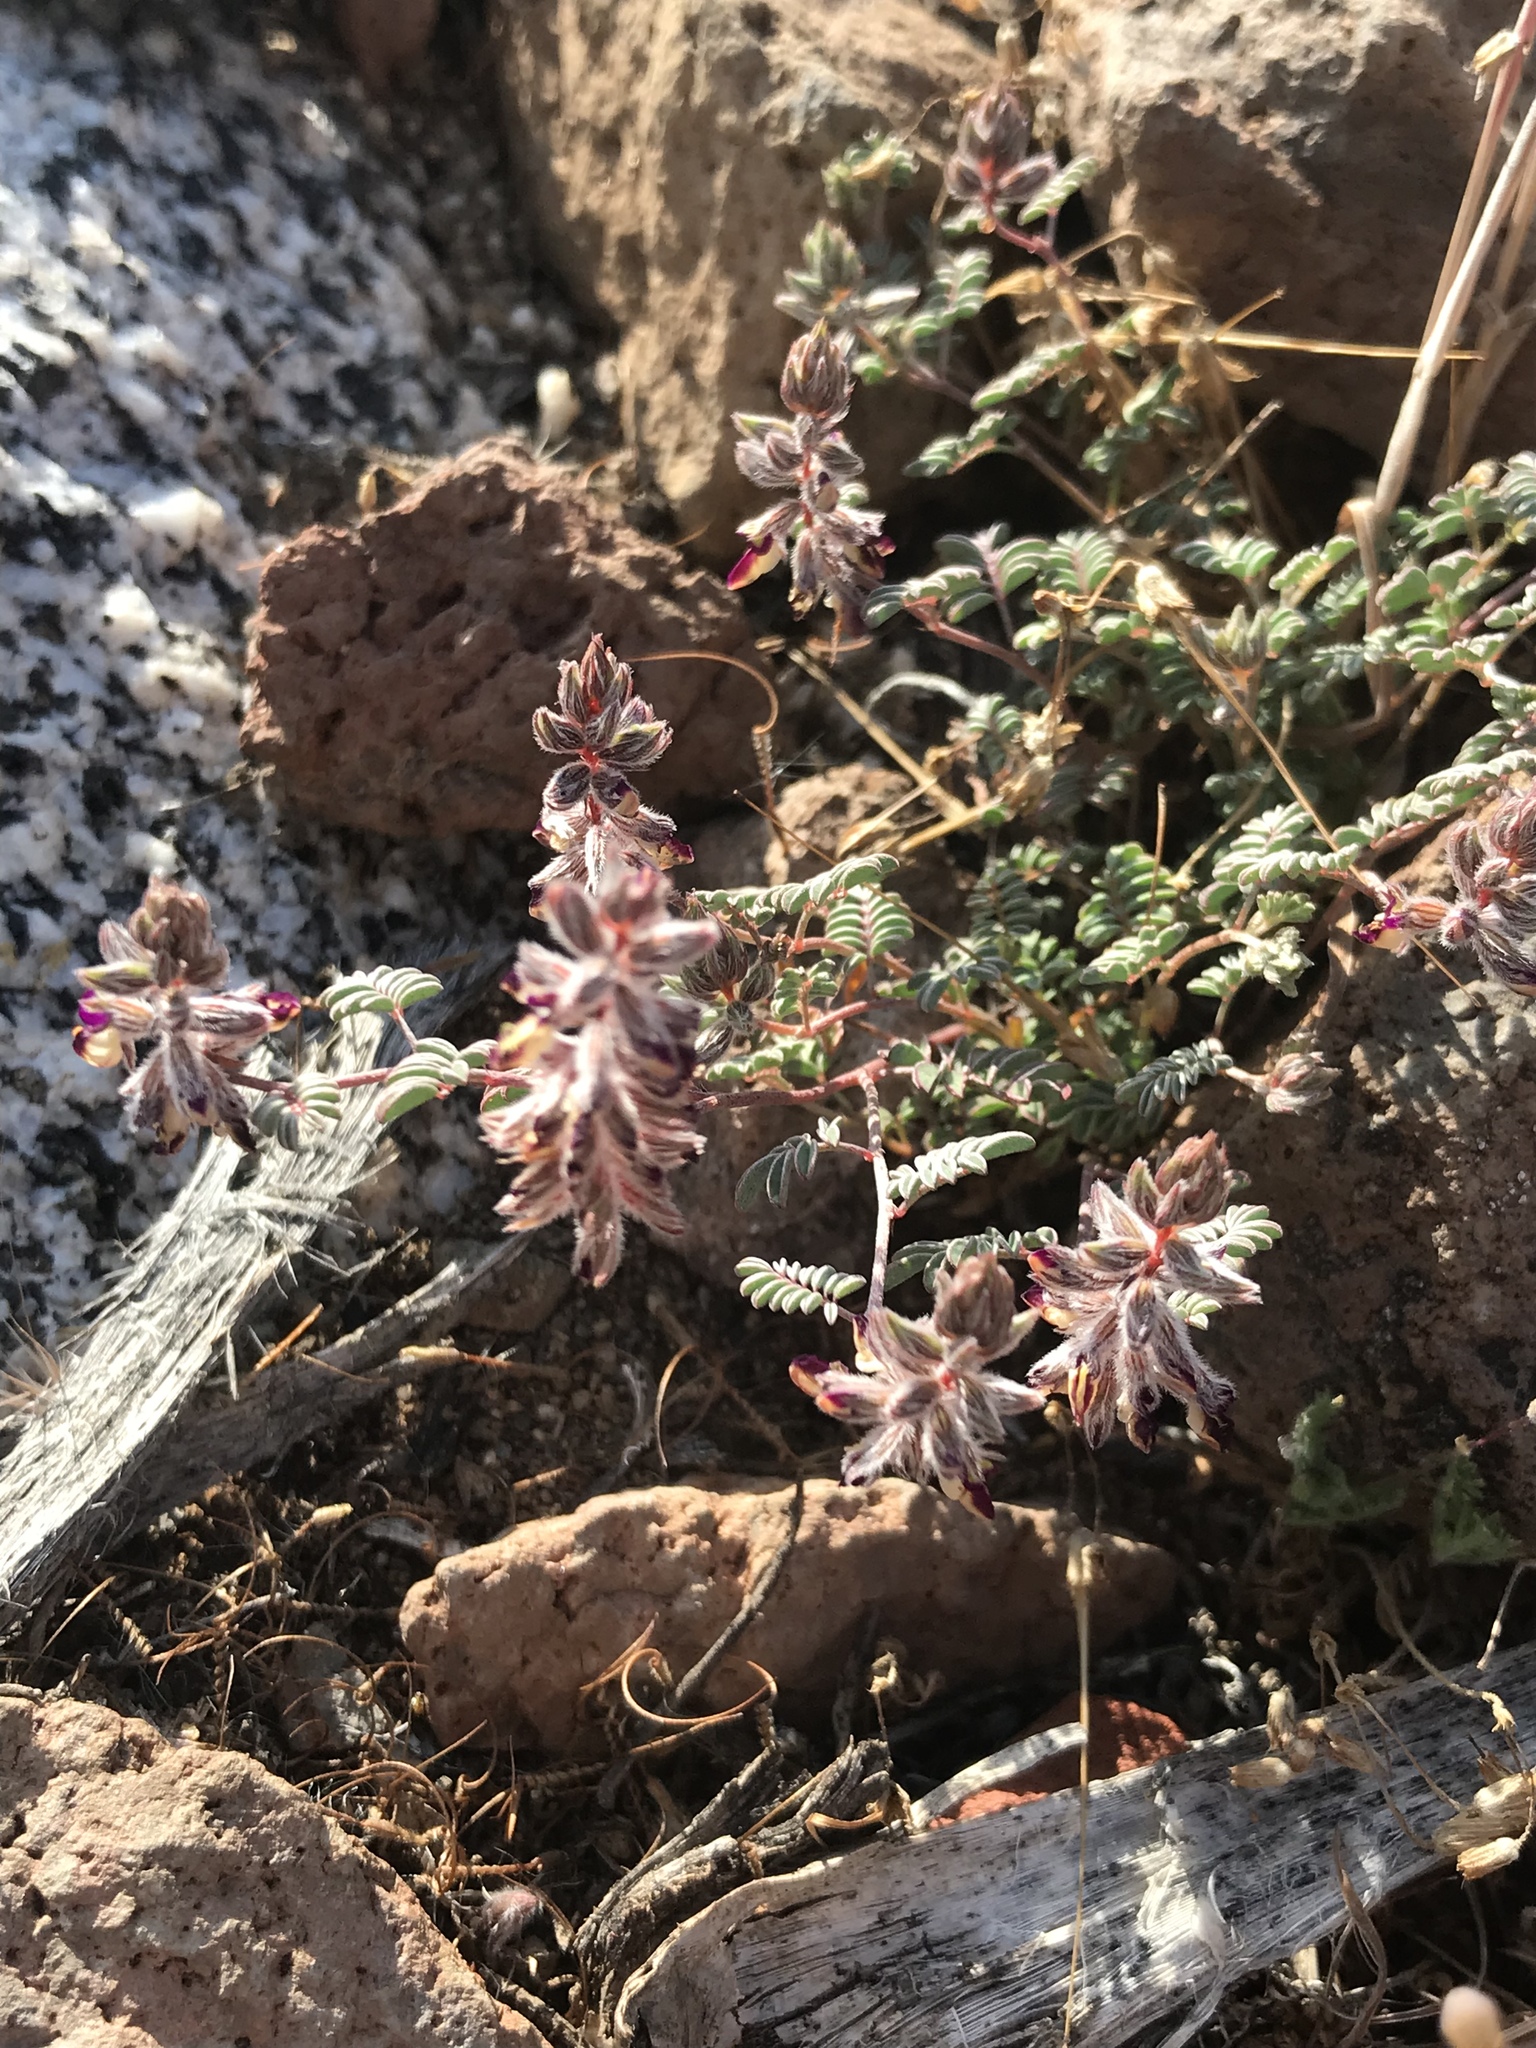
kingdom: Plantae
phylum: Tracheophyta
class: Magnoliopsida
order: Fabales
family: Fabaceae
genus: Marina
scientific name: Marina orcuttii
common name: Sonoran desert marina
